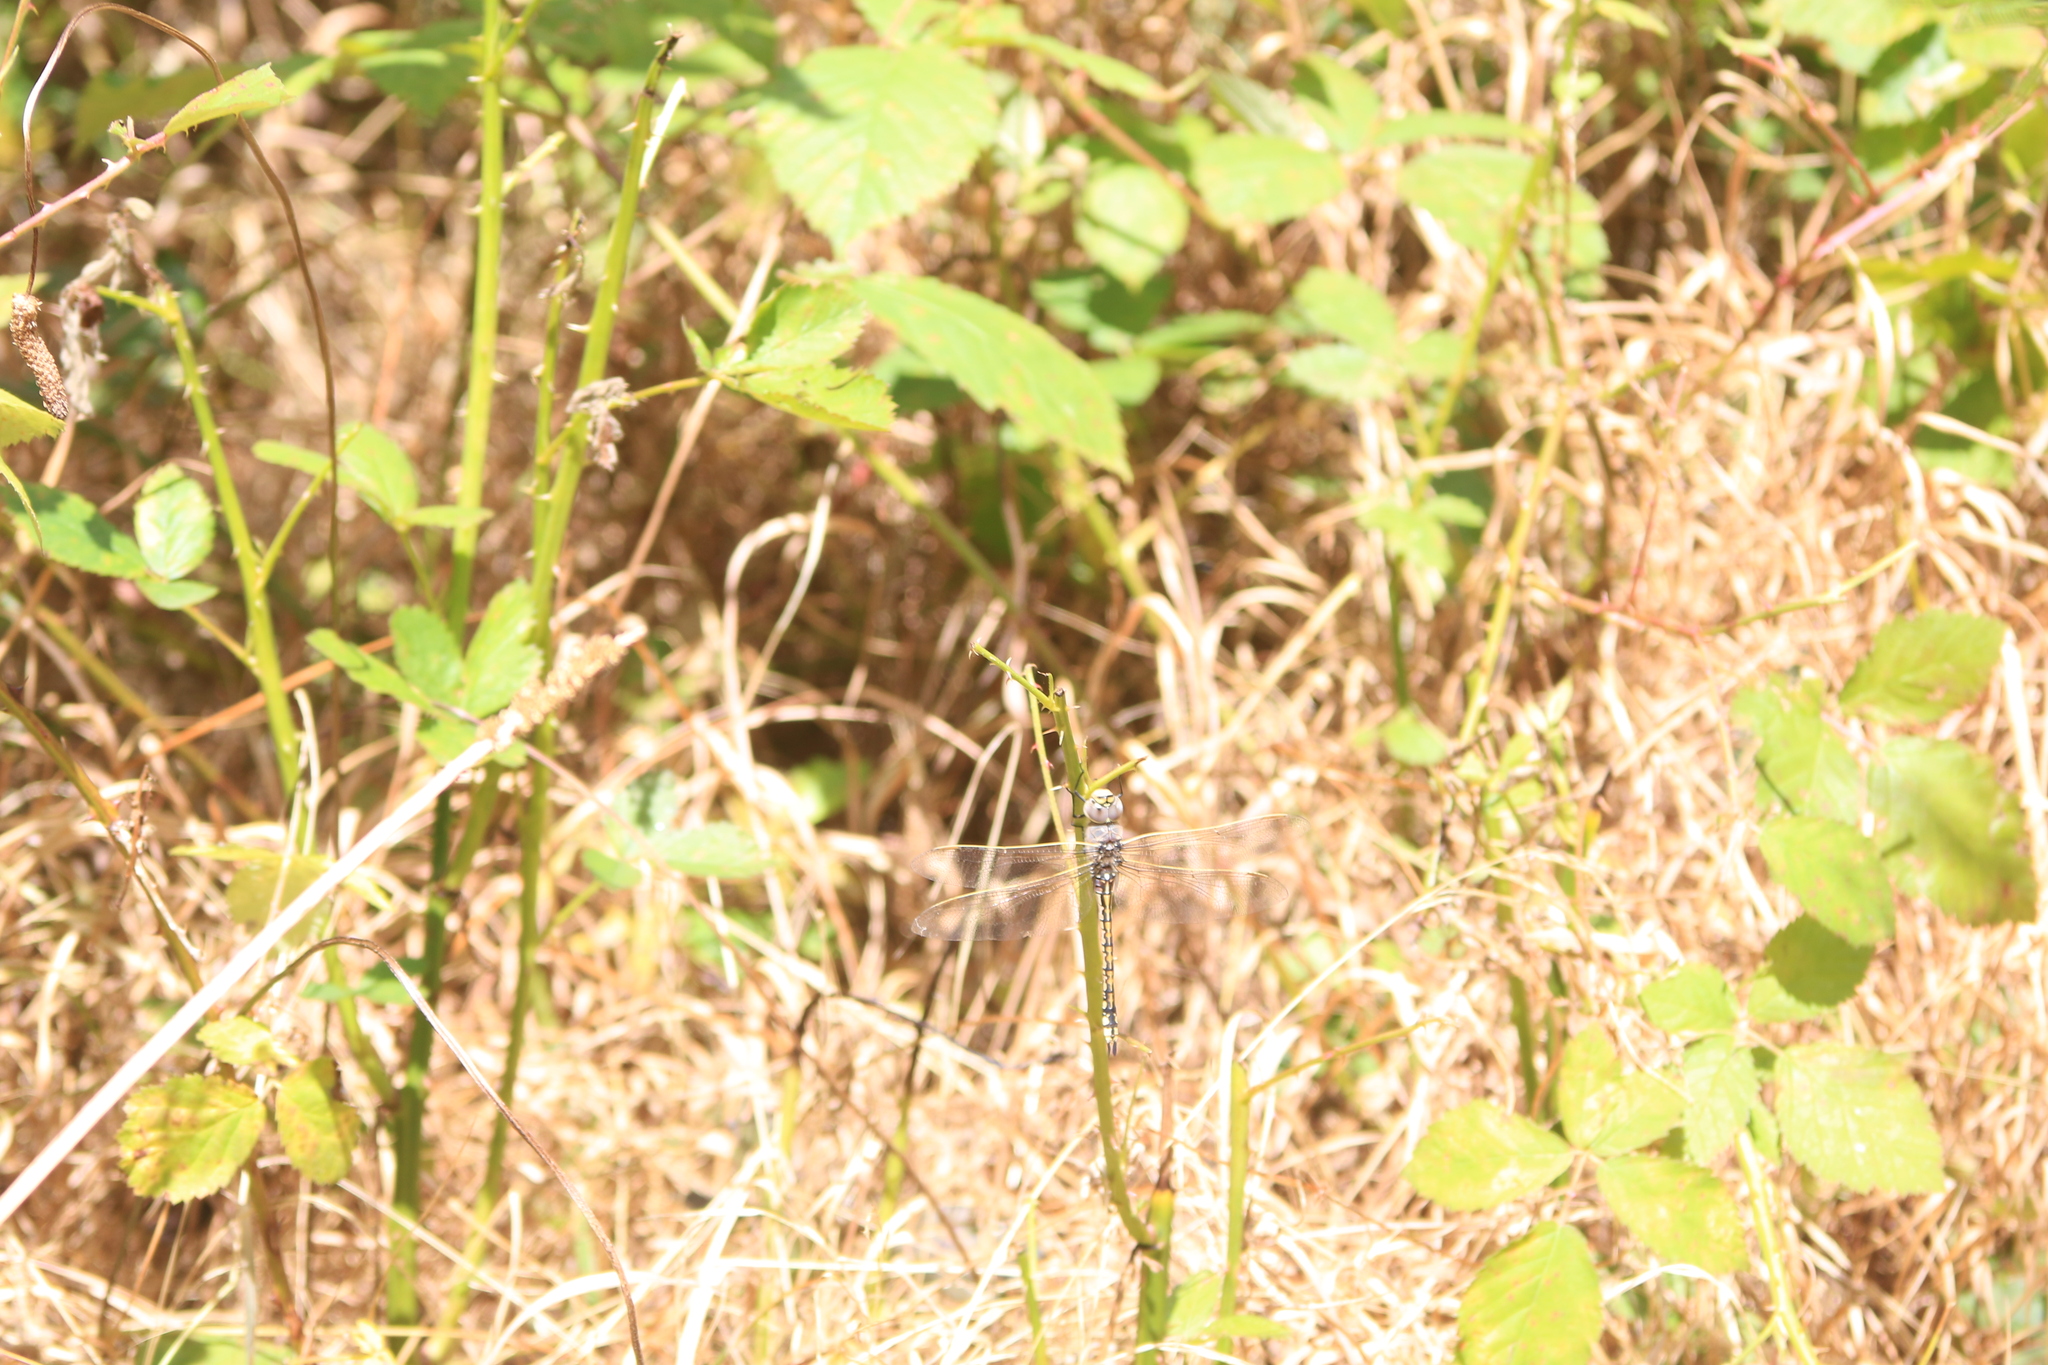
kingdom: Animalia
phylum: Arthropoda
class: Insecta
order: Odonata
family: Aeshnidae
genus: Anax
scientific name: Anax papuensis
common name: Australian emperor
